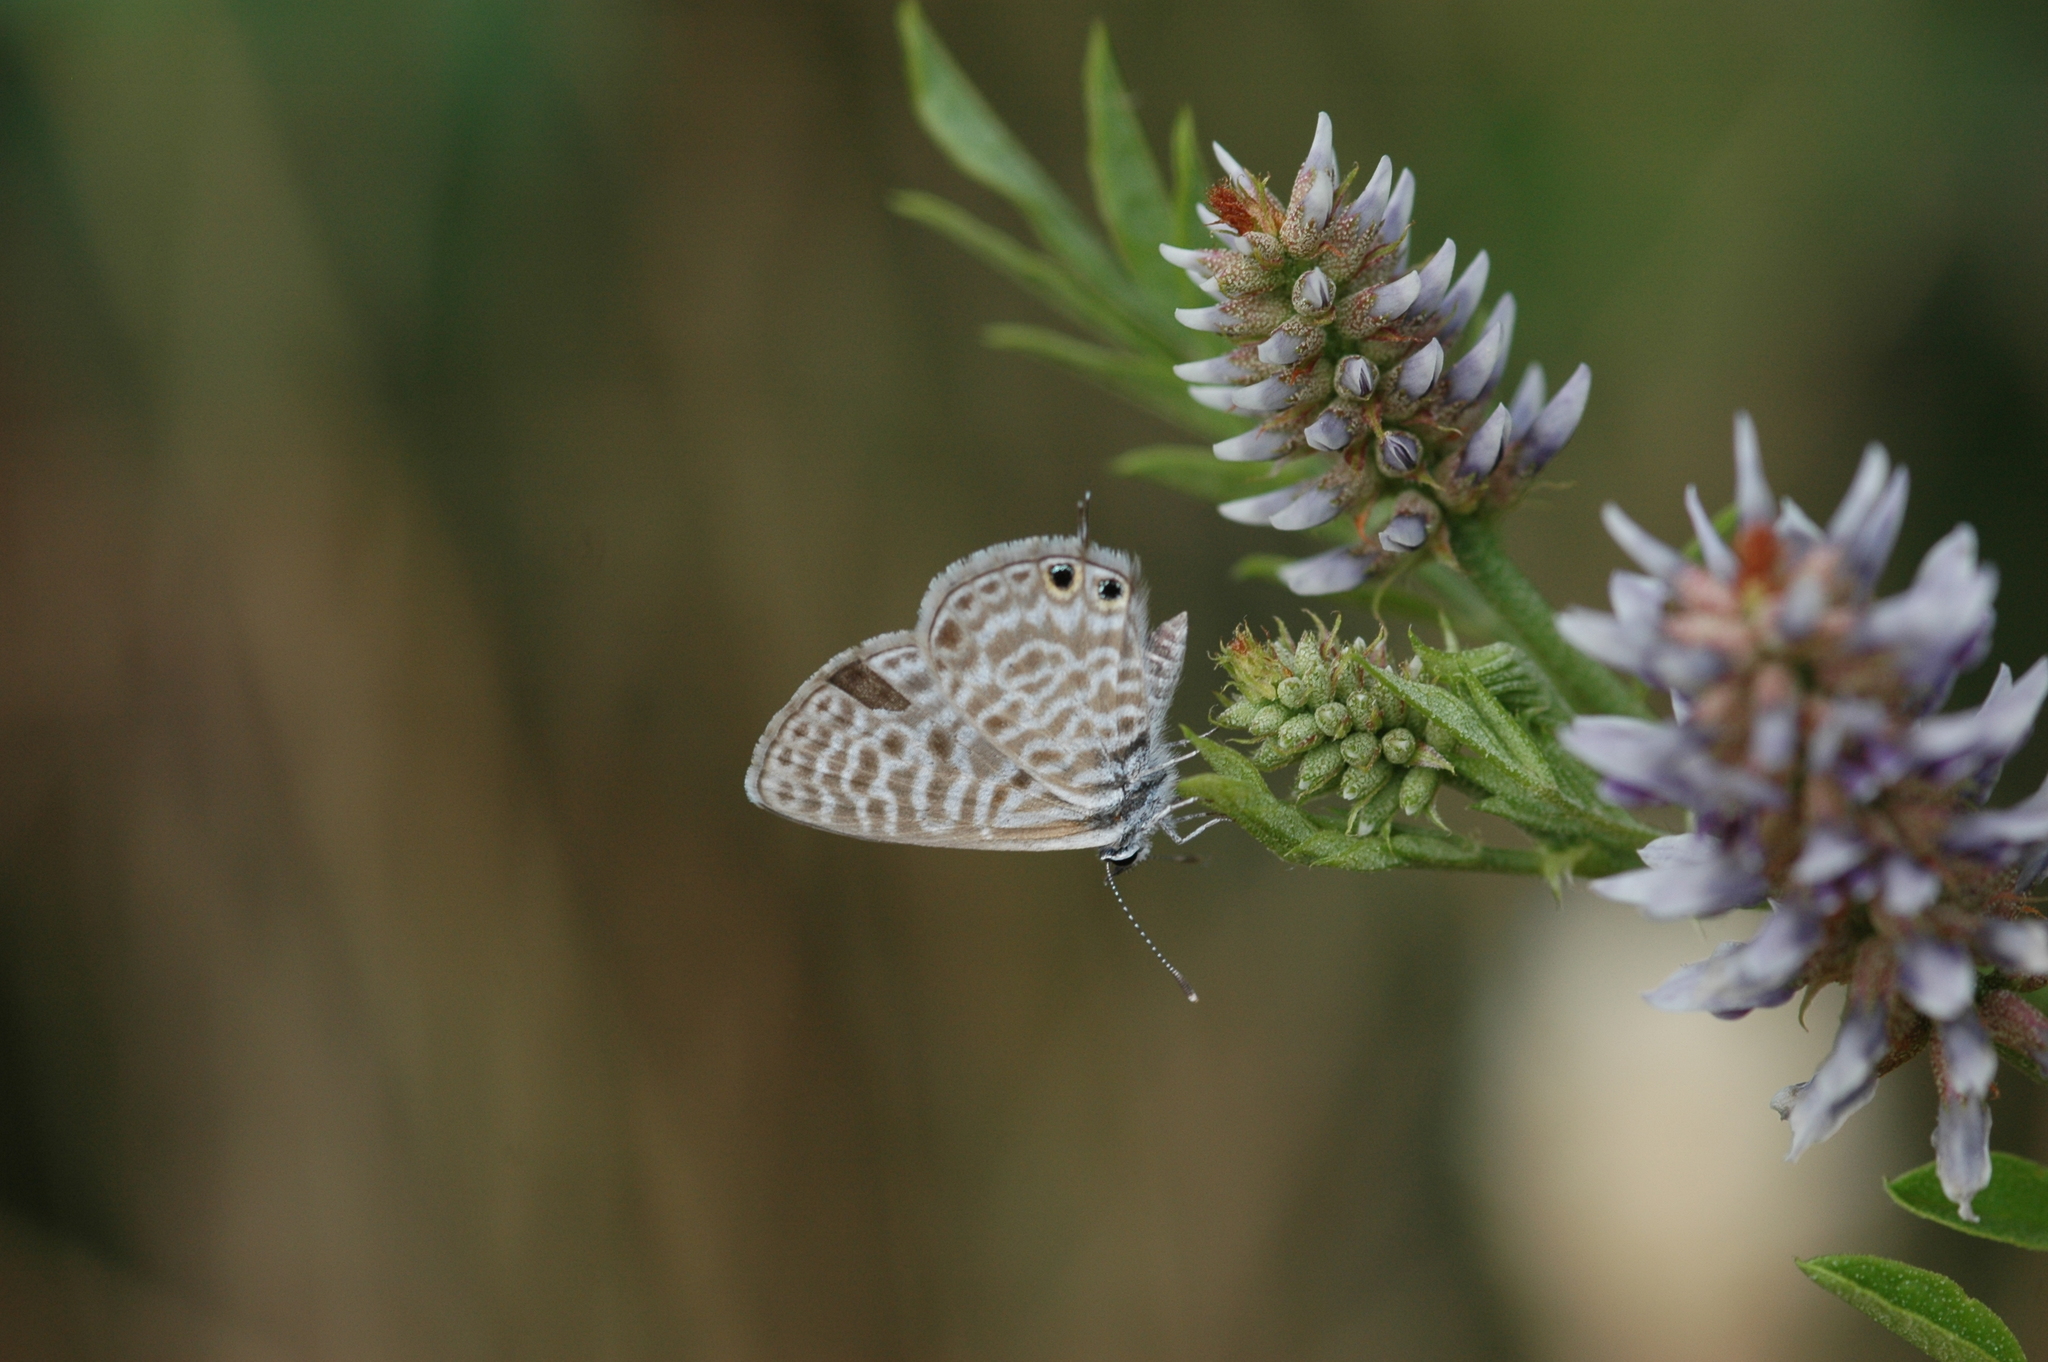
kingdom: Animalia
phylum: Arthropoda
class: Insecta
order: Lepidoptera
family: Lycaenidae
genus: Leptotes
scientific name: Leptotes pirithous
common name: Lang's short-tailed blue
